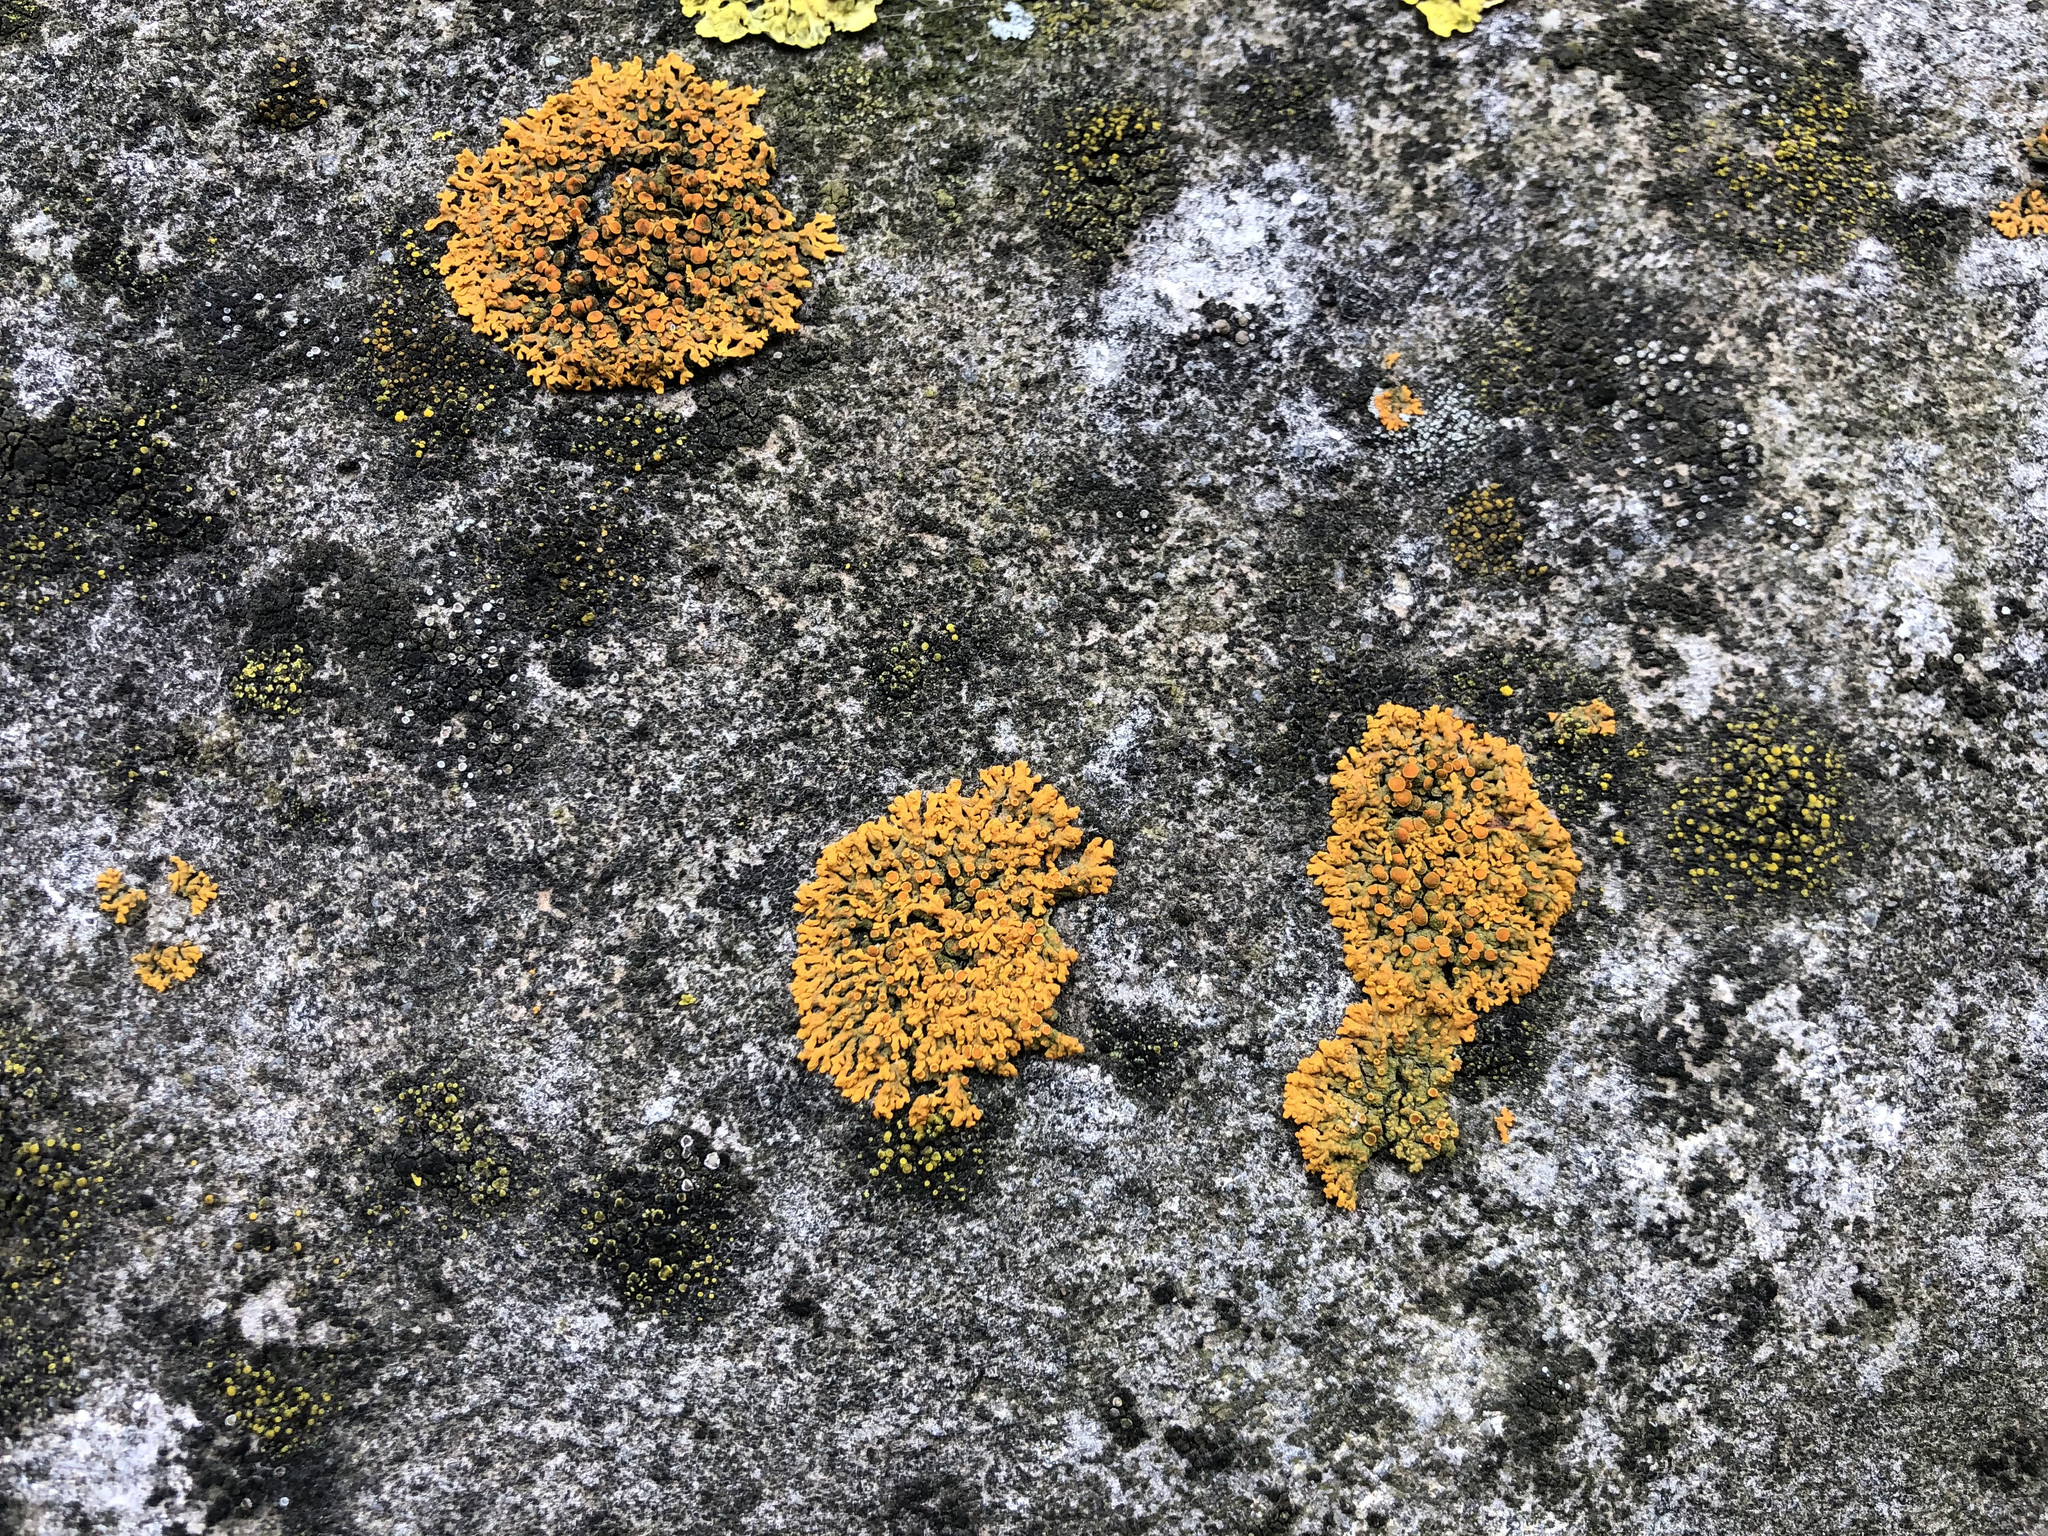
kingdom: Fungi
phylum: Ascomycota
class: Lecanoromycetes
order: Teloschistales
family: Teloschistaceae
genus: Xanthoria
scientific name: Xanthoria elegans
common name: Elegant sunburst lichen
